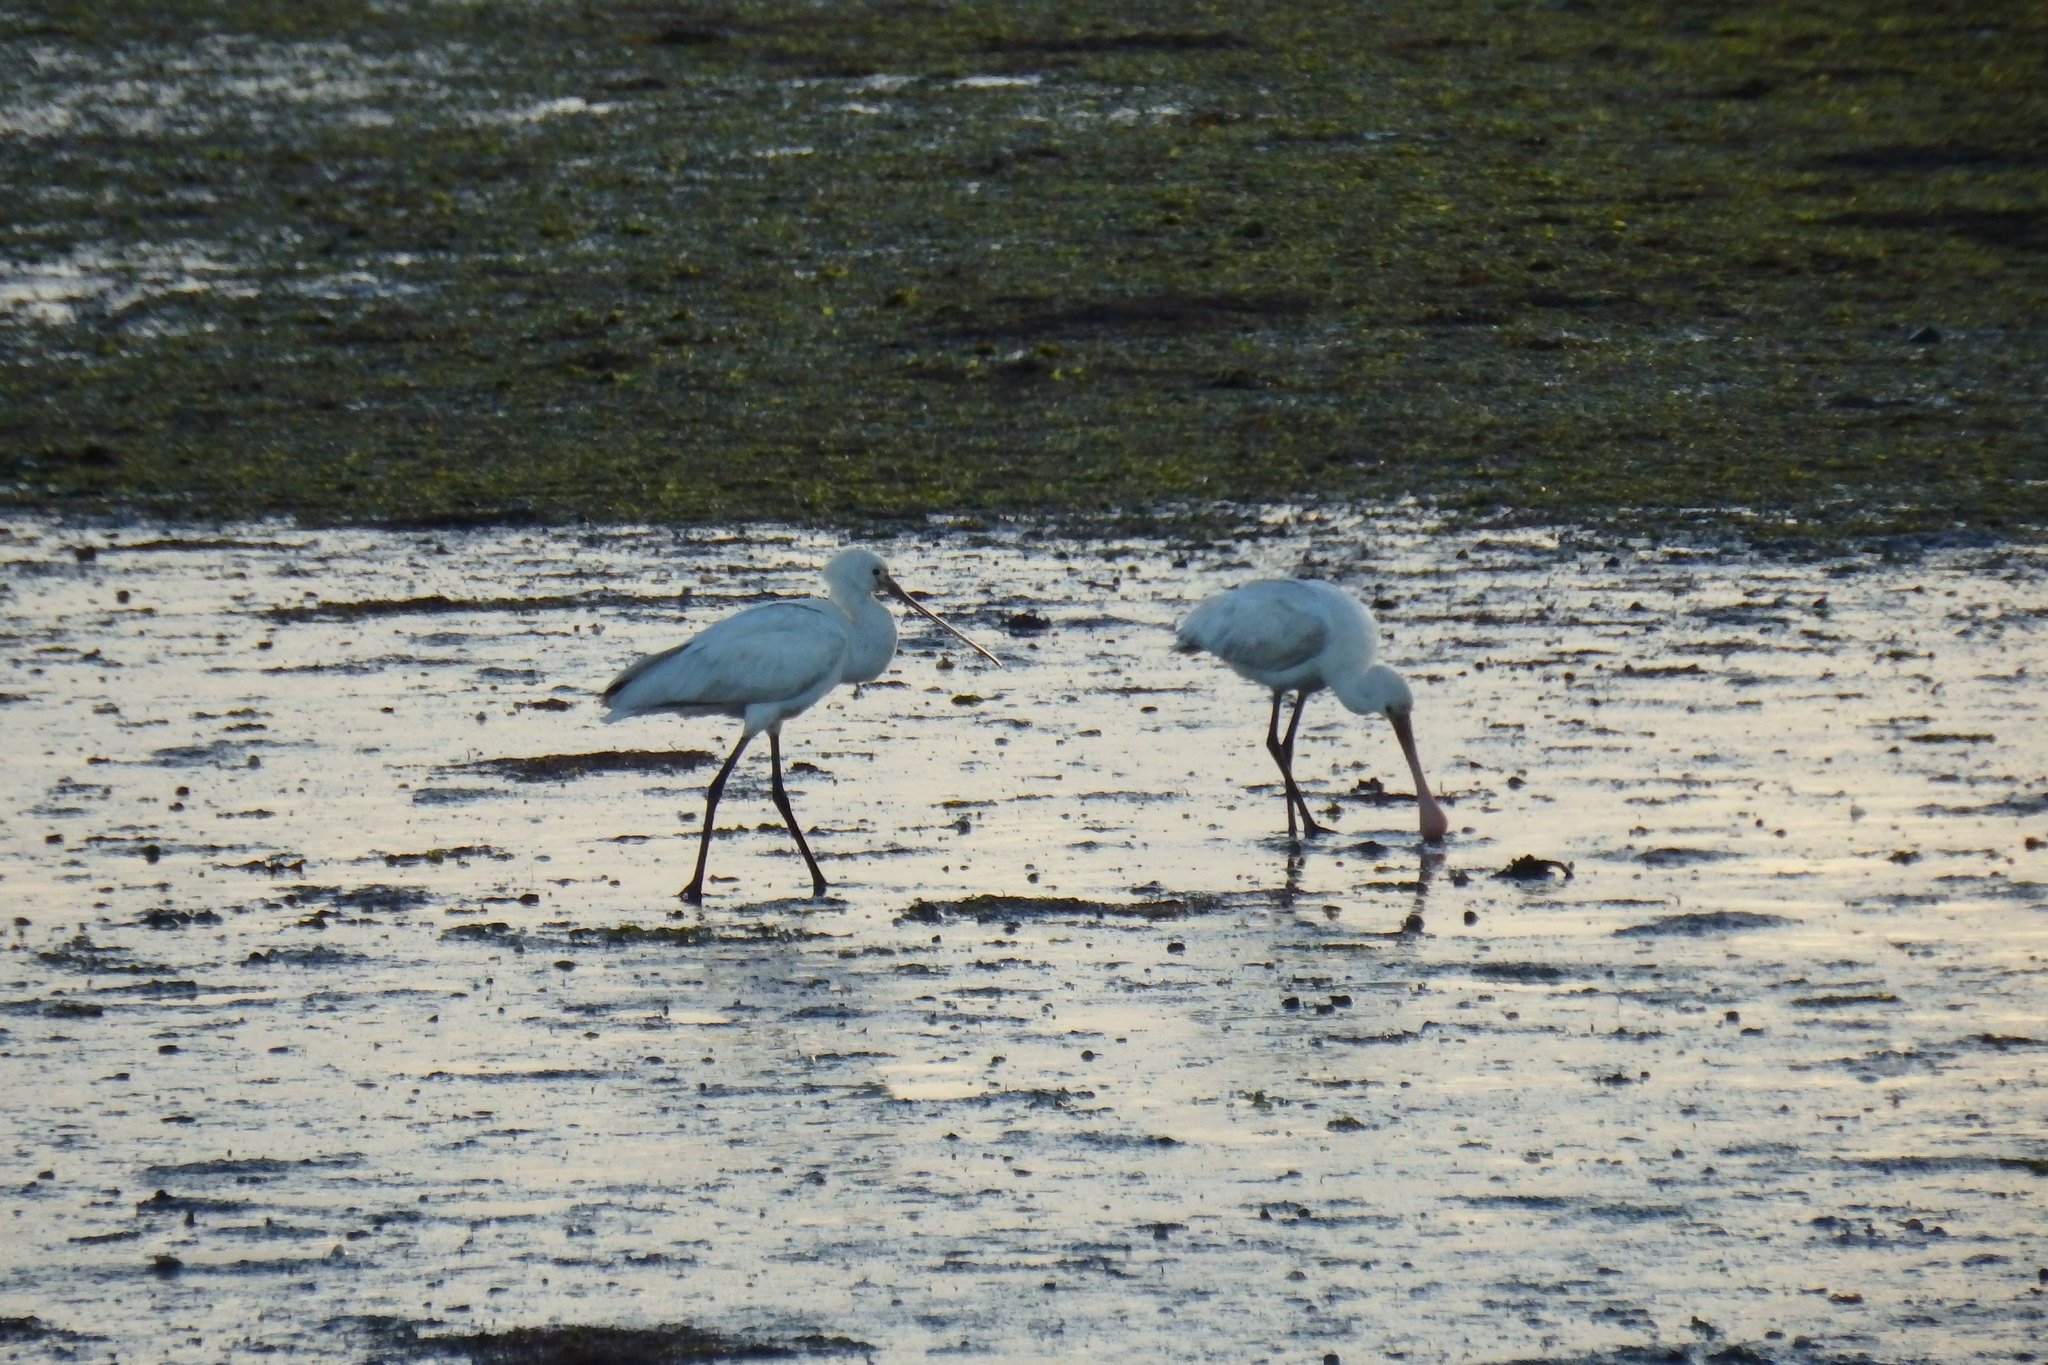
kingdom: Animalia
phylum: Chordata
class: Aves
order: Pelecaniformes
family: Threskiornithidae
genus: Platalea
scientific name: Platalea leucorodia
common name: Eurasian spoonbill
